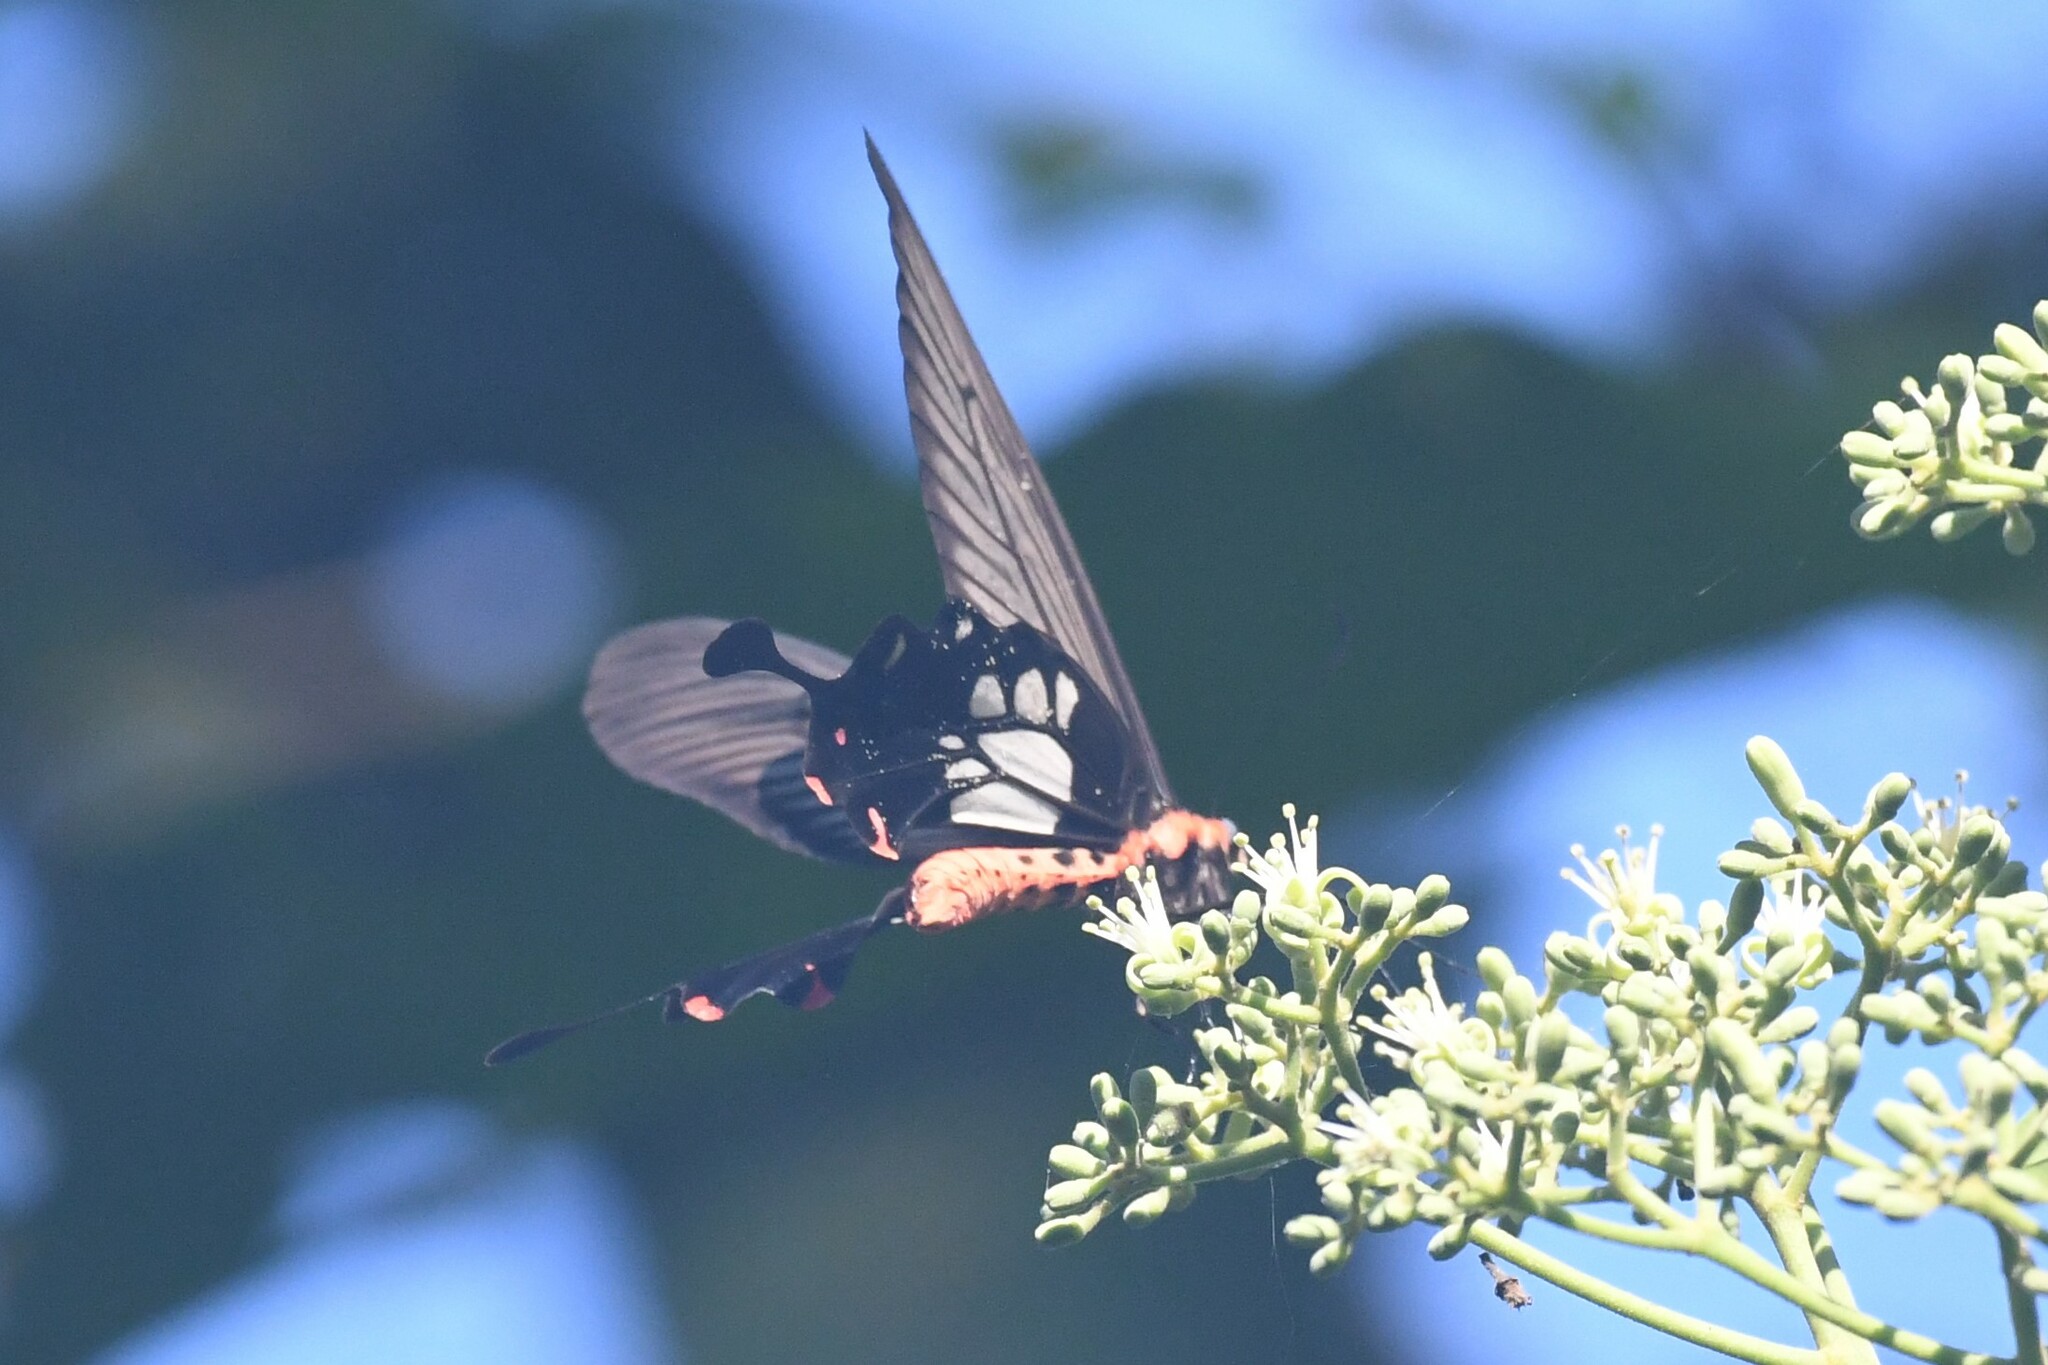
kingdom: Animalia
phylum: Arthropoda
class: Insecta
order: Lepidoptera
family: Papilionidae
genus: Losaria
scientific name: Losaria
